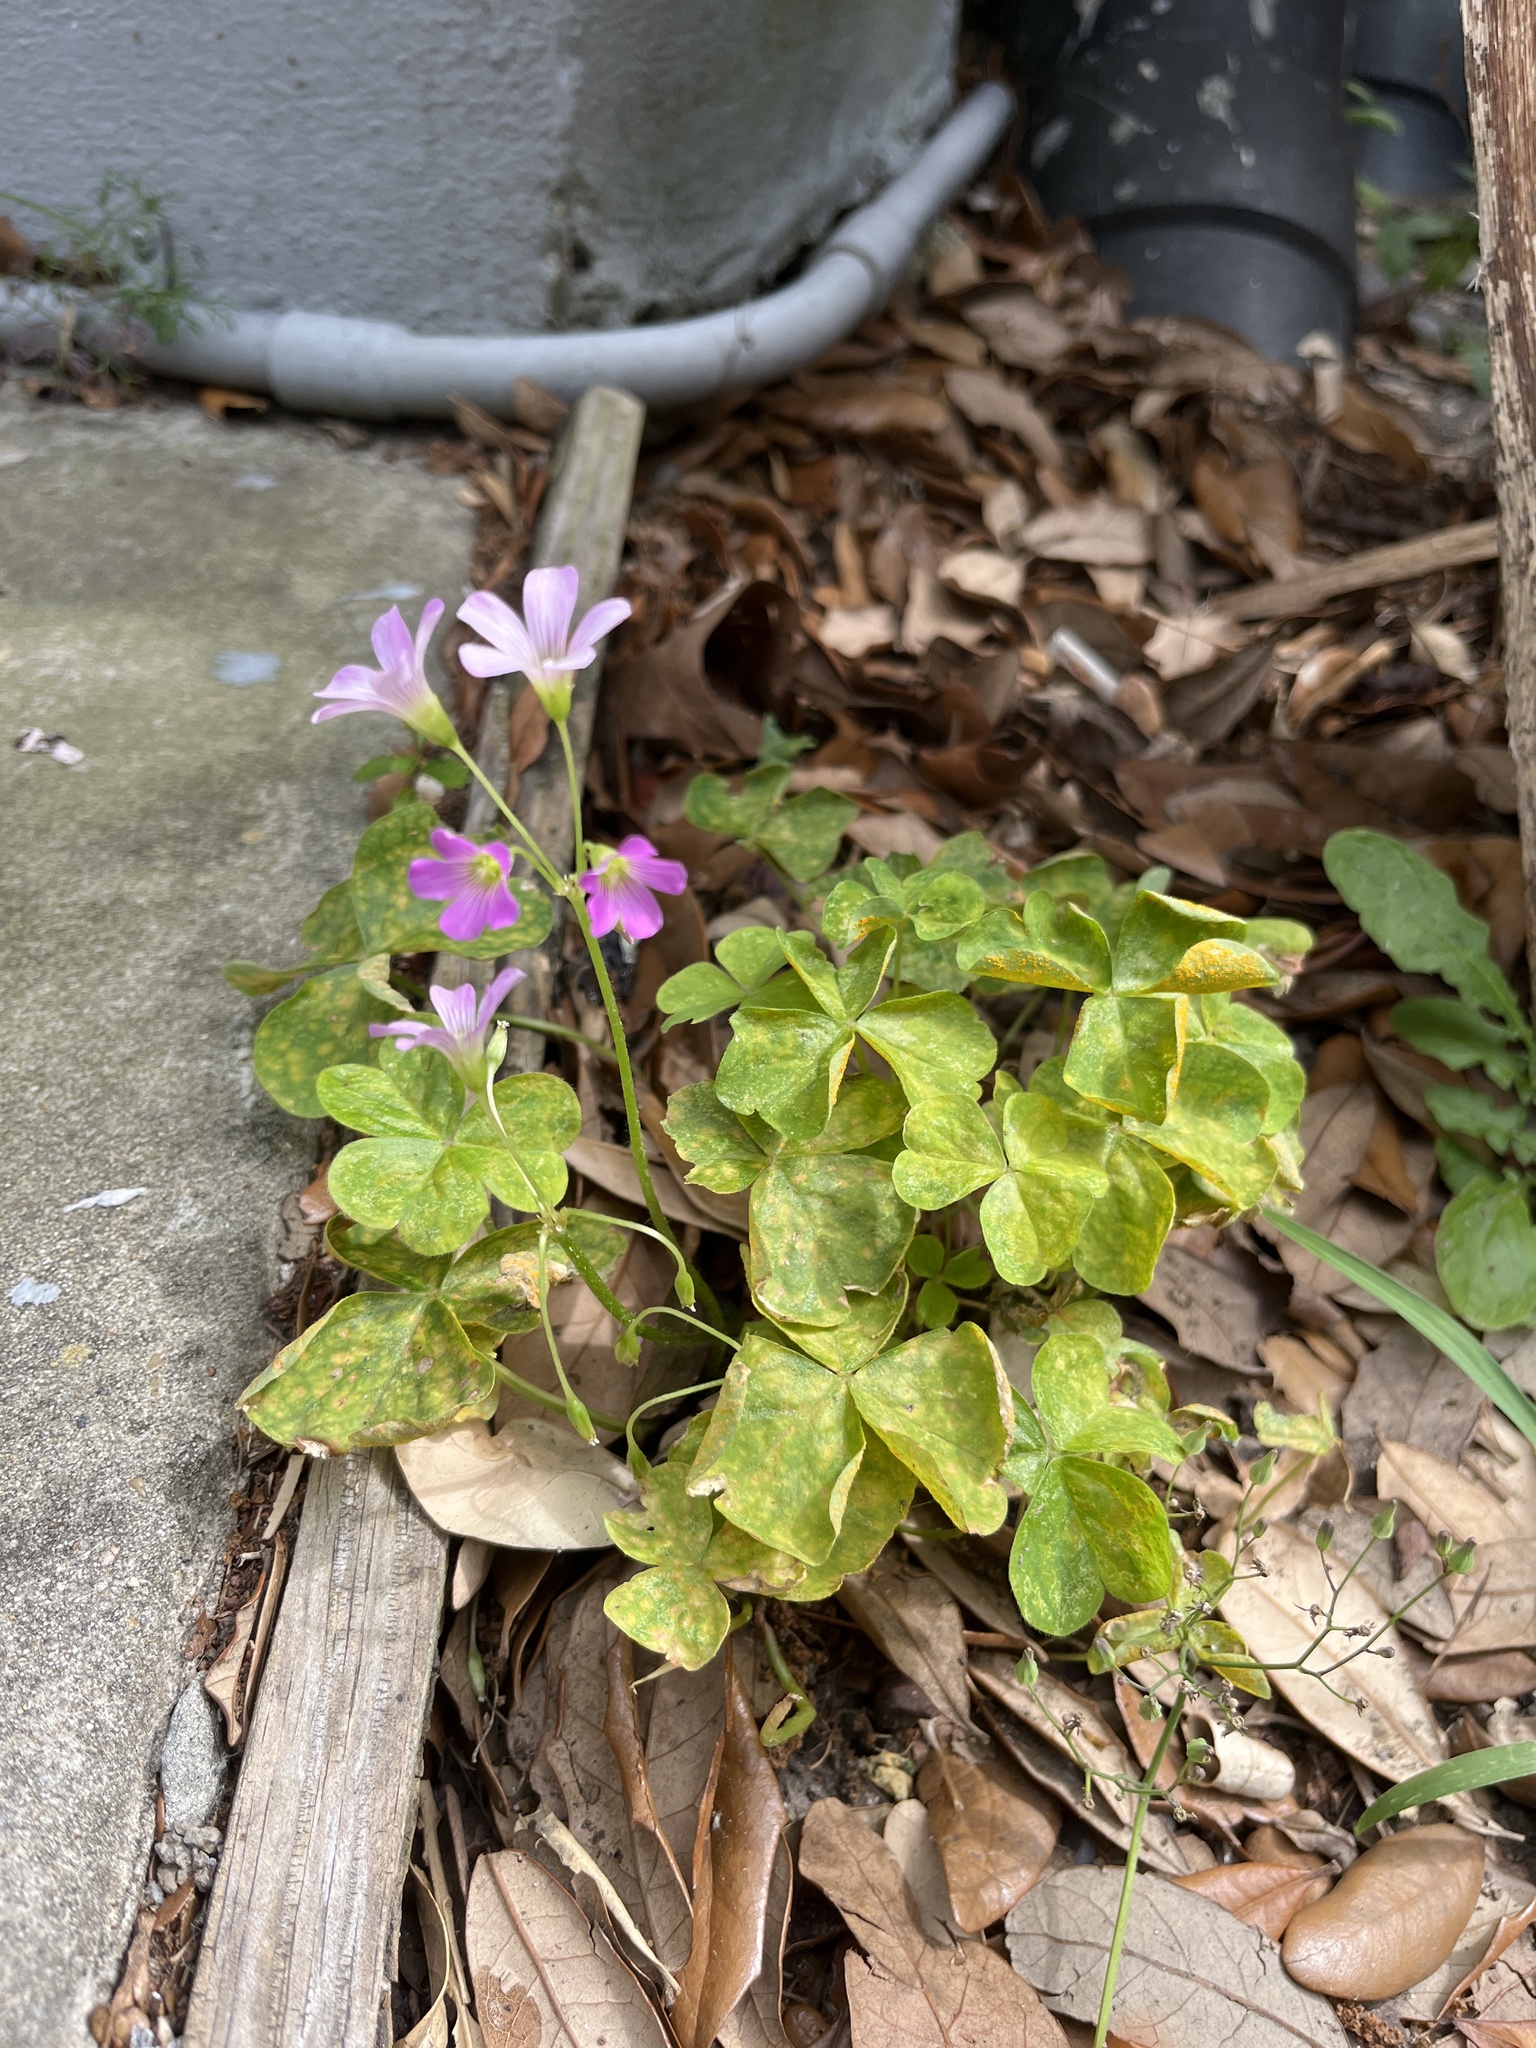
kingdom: Plantae
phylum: Tracheophyta
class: Magnoliopsida
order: Oxalidales
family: Oxalidaceae
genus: Oxalis
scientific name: Oxalis debilis
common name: Large-flowered pink-sorrel
